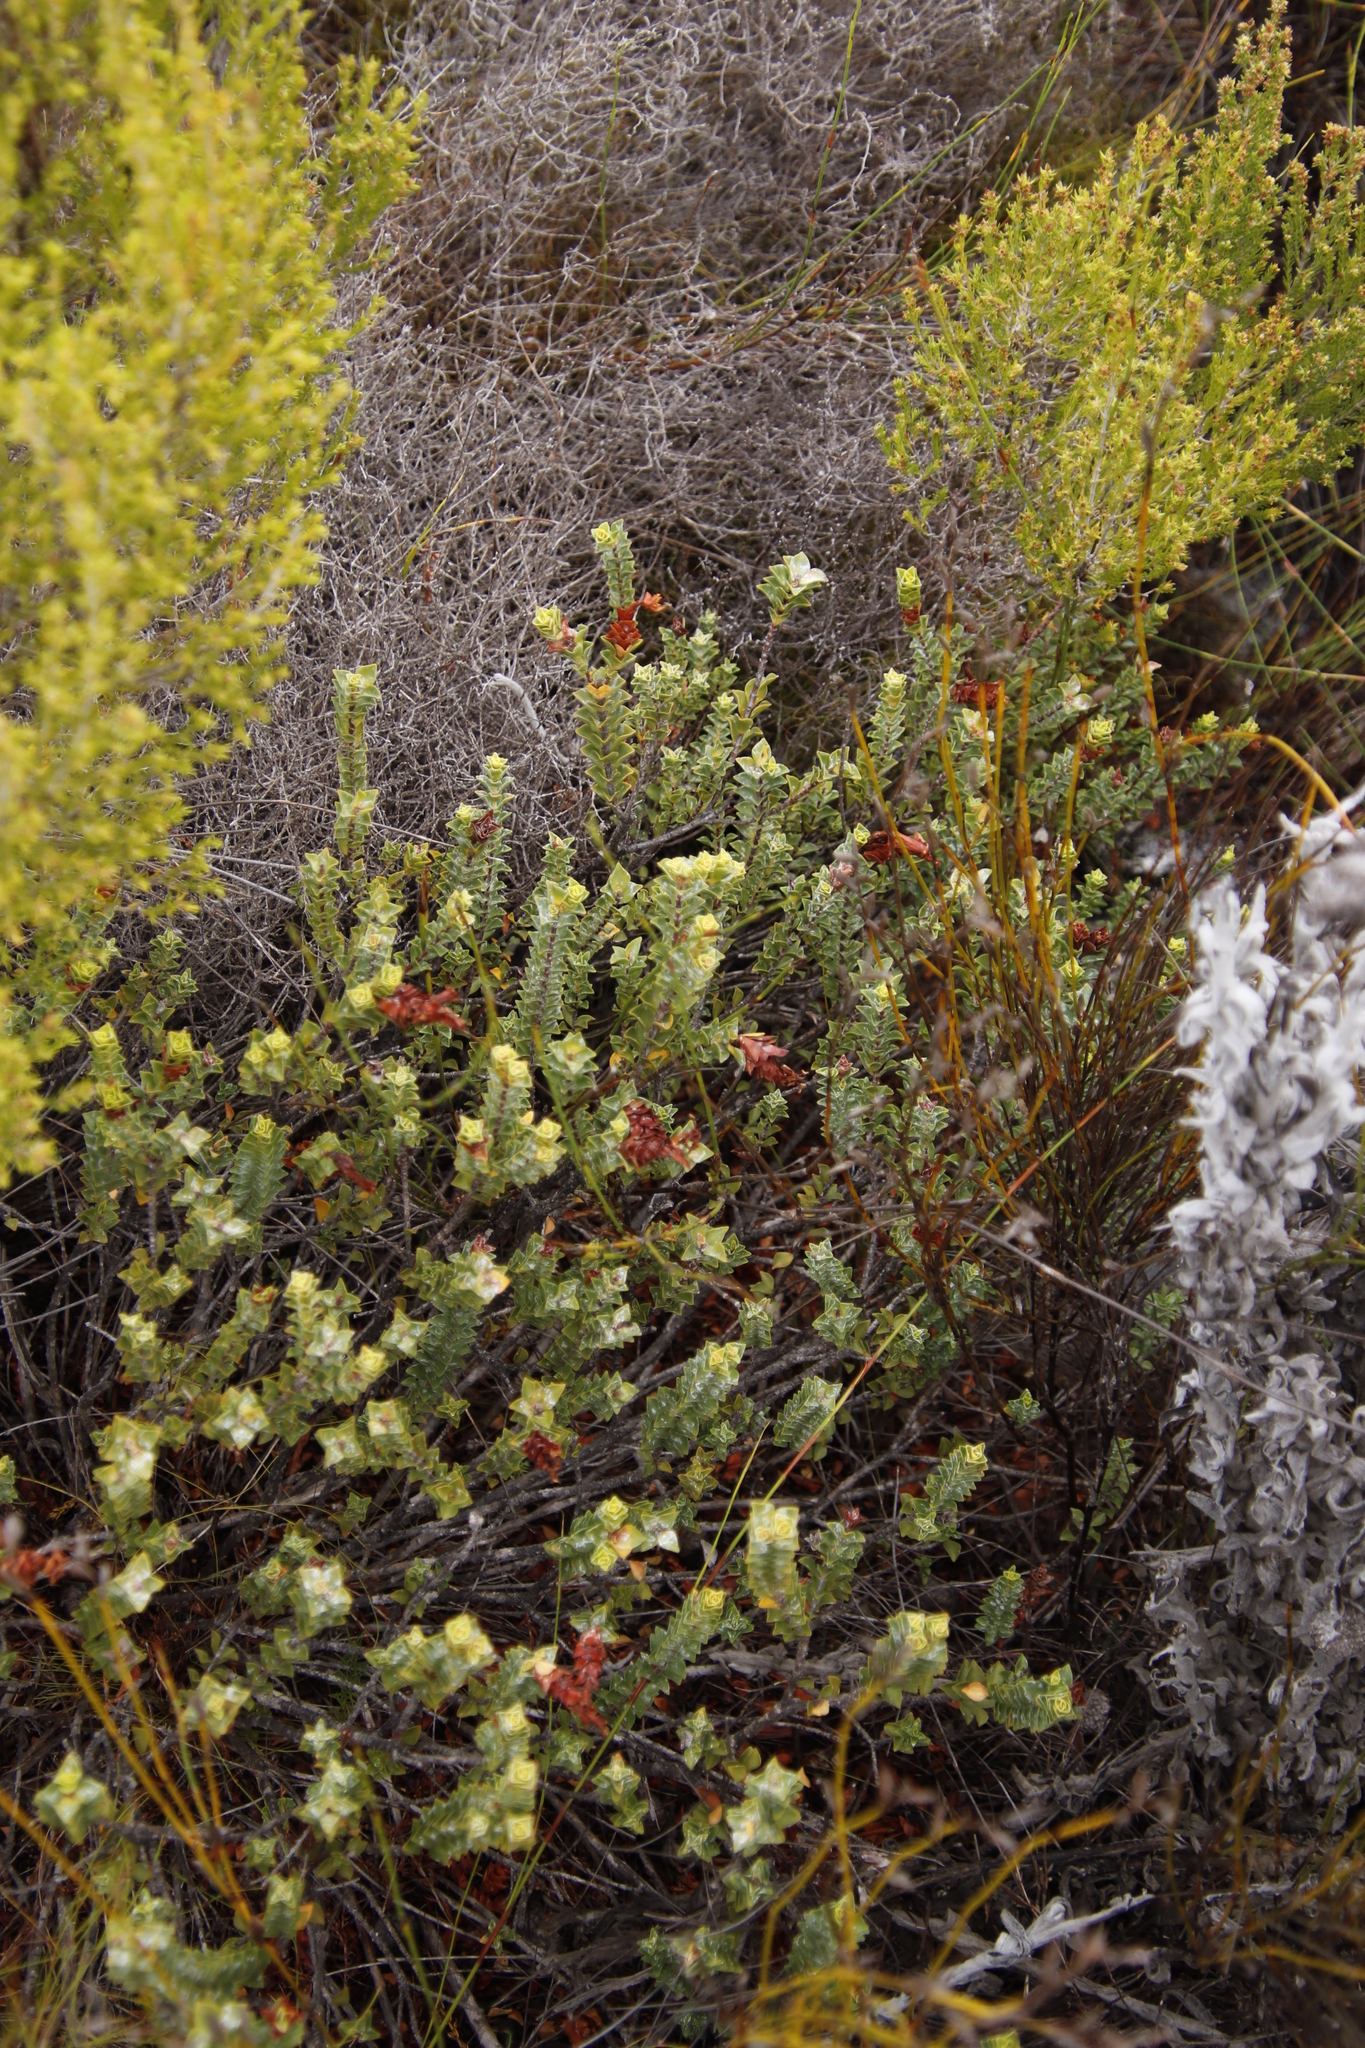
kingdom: Plantae
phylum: Tracheophyta
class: Magnoliopsida
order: Myrtales
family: Penaeaceae
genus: Saltera
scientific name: Saltera sarcocolla
